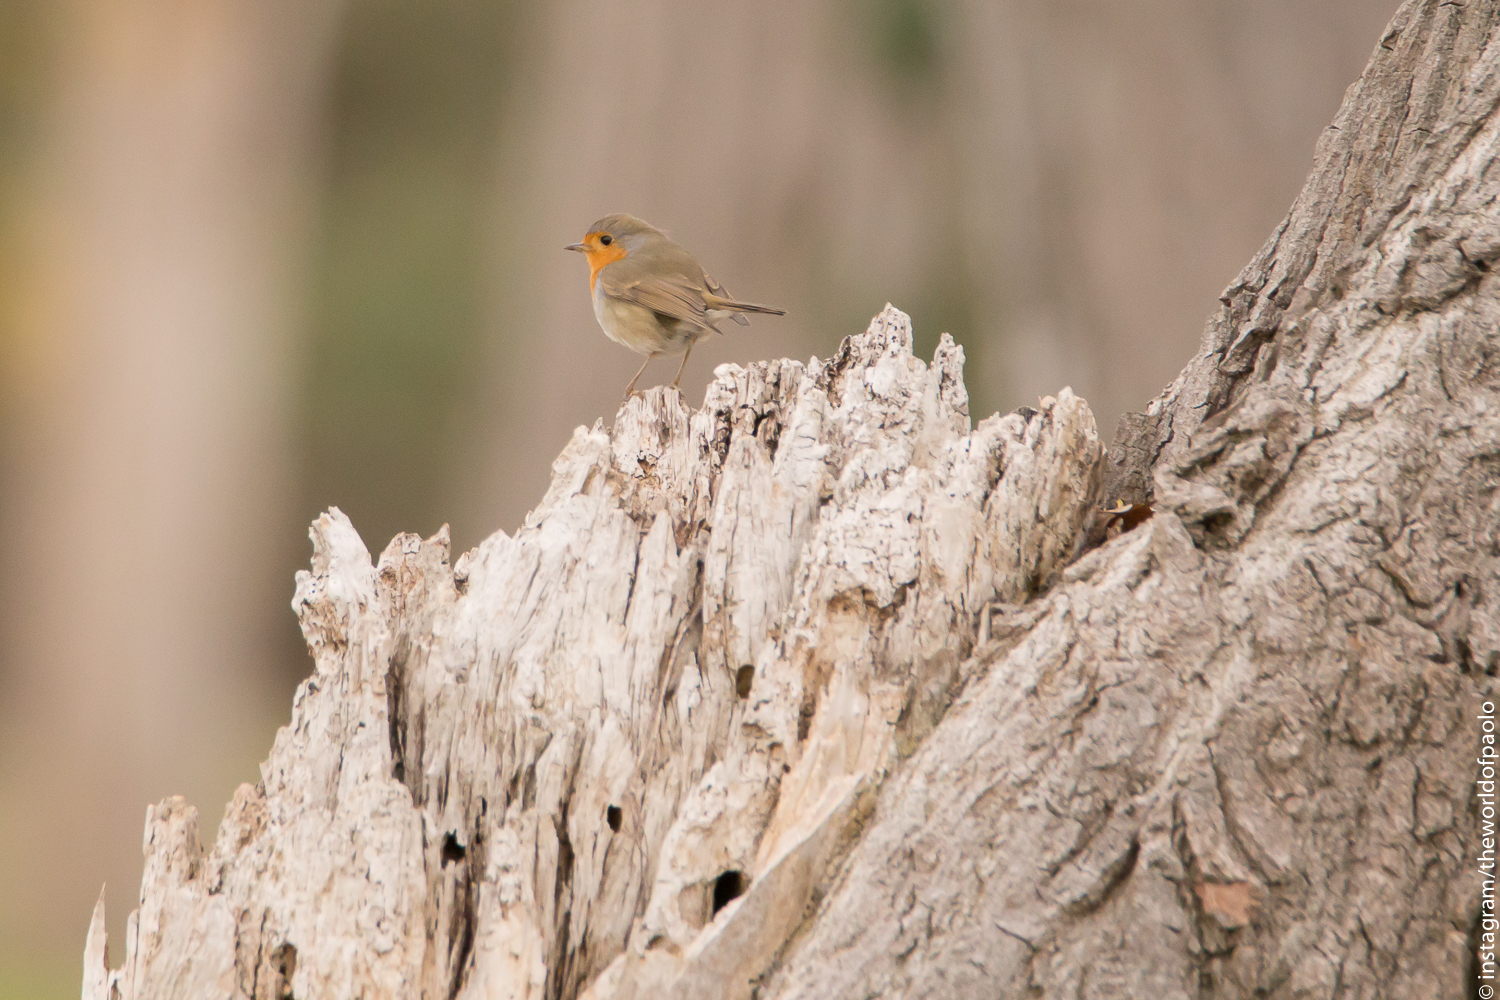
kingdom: Animalia
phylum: Chordata
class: Aves
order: Passeriformes
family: Muscicapidae
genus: Erithacus
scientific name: Erithacus rubecula
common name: European robin
